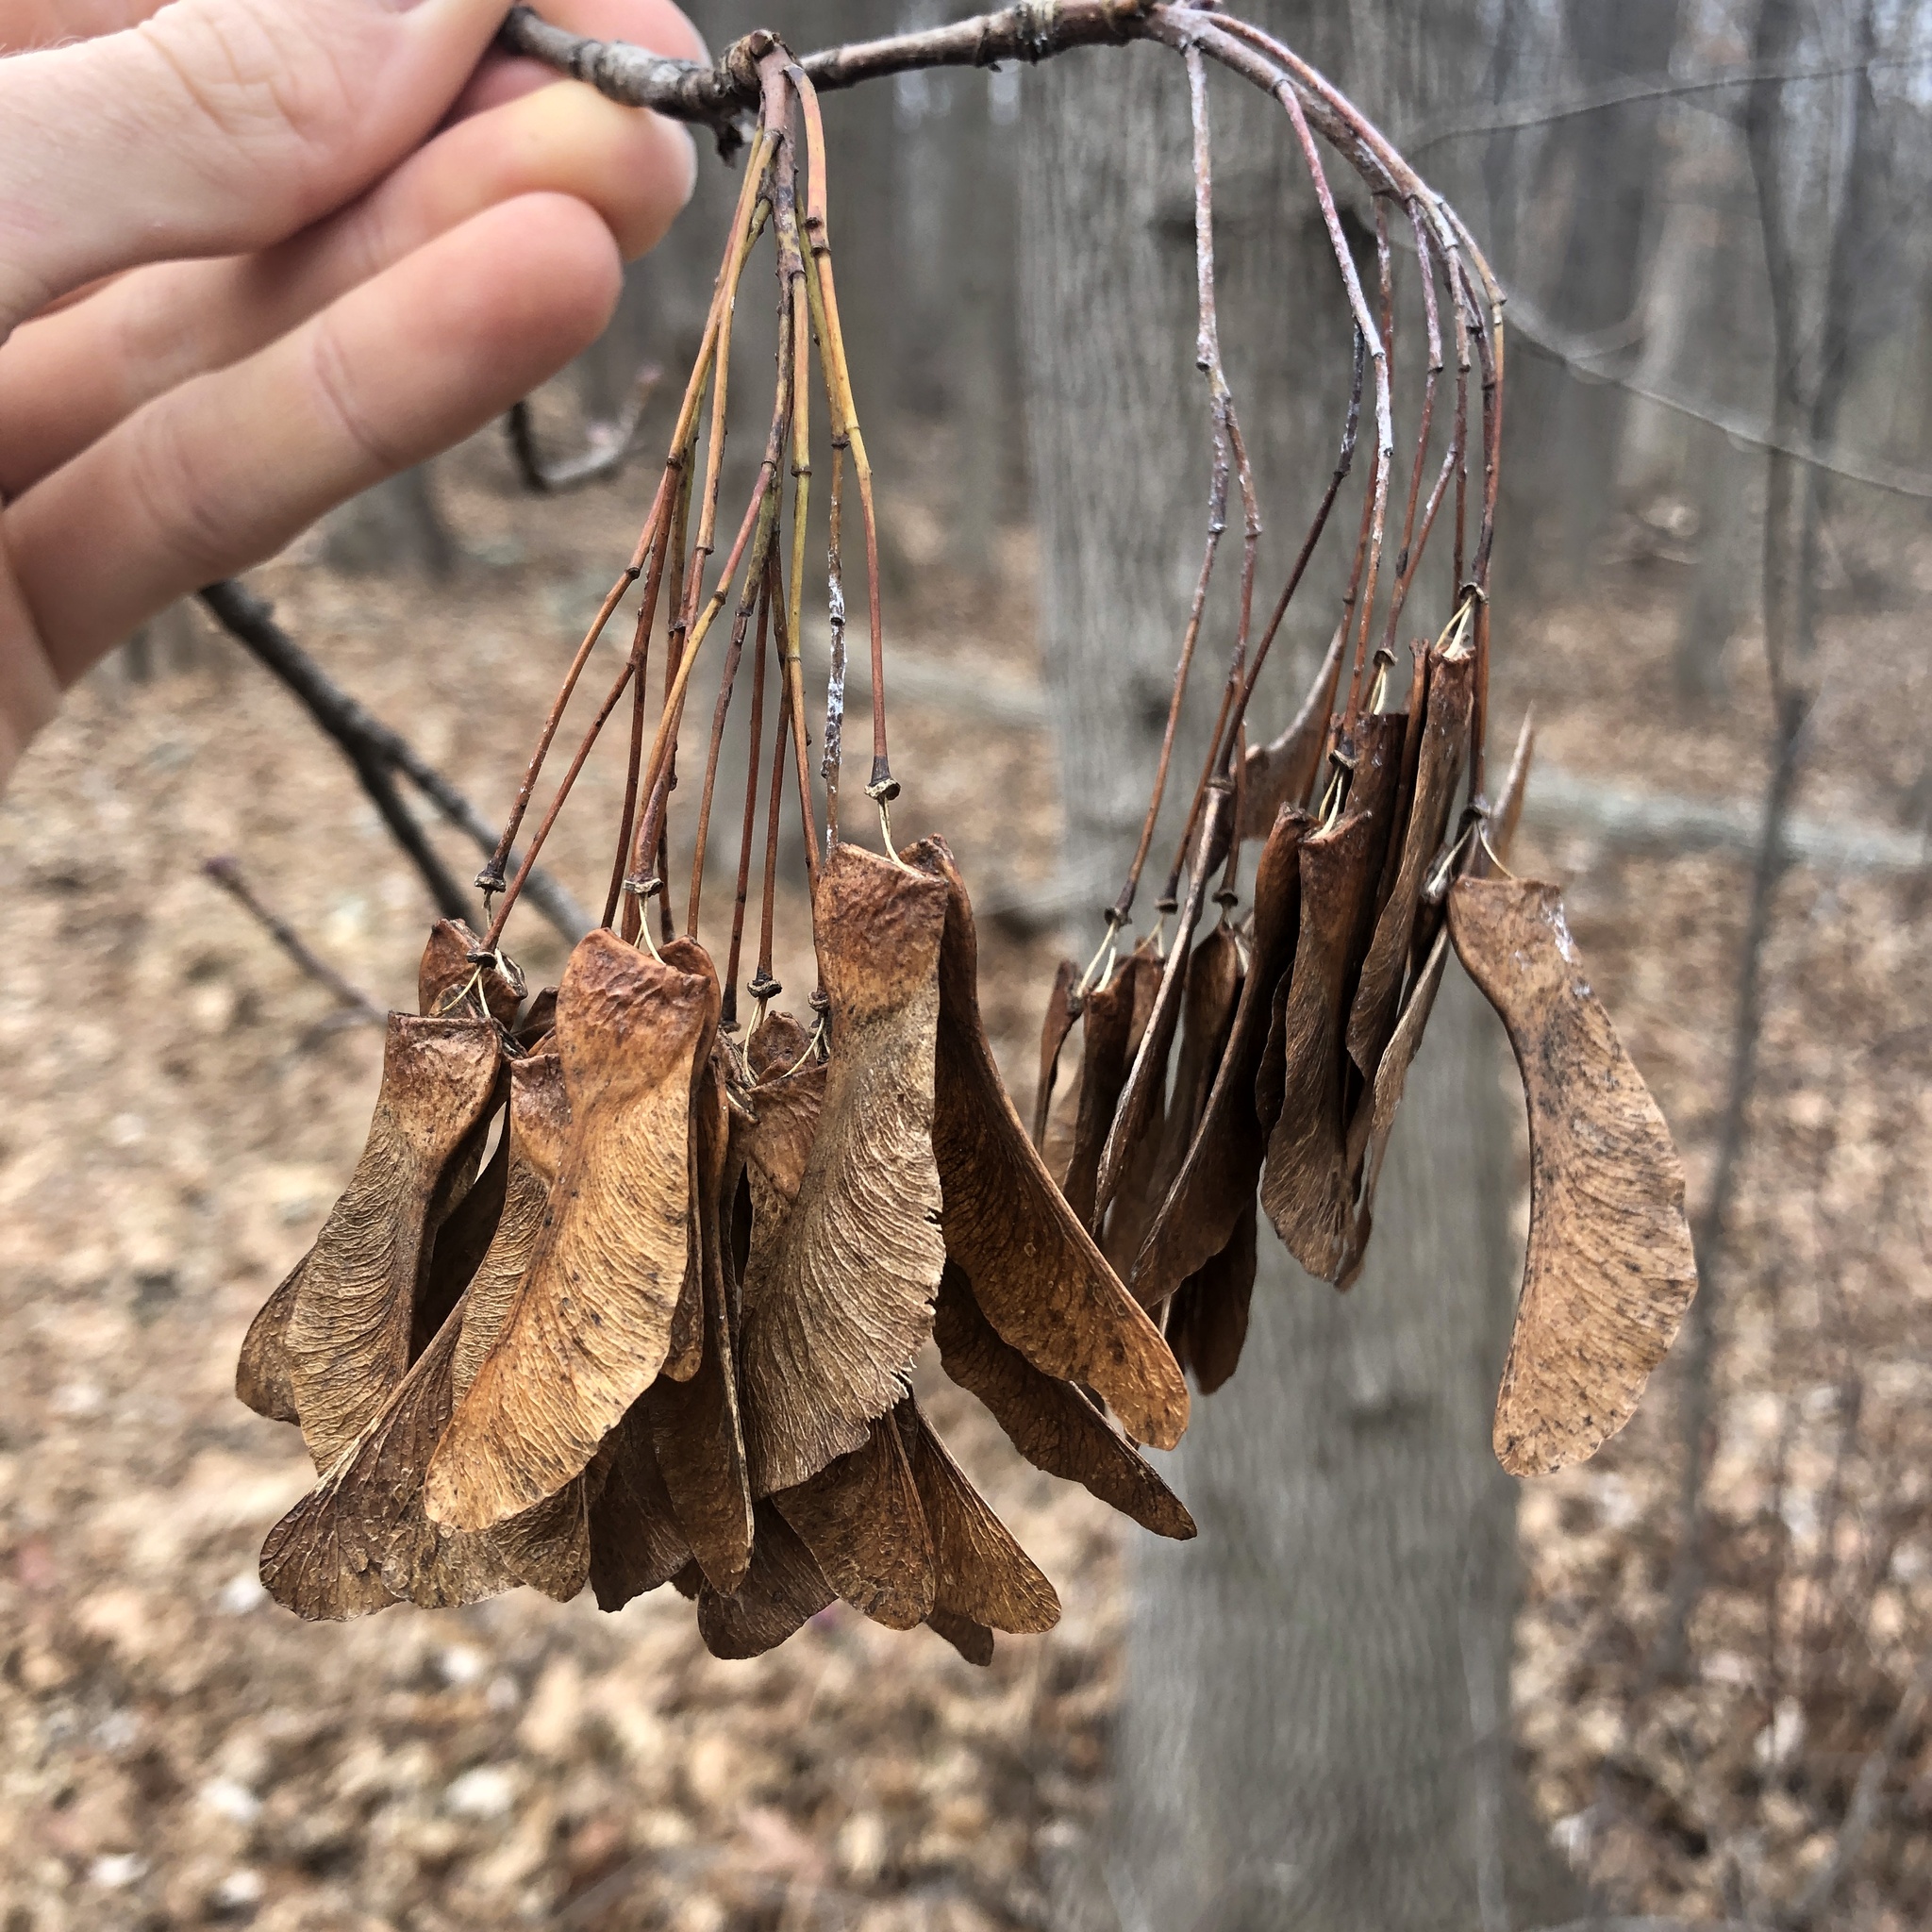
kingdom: Plantae
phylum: Tracheophyta
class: Magnoliopsida
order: Sapindales
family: Sapindaceae
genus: Acer
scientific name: Acer platanoides
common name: Norway maple
